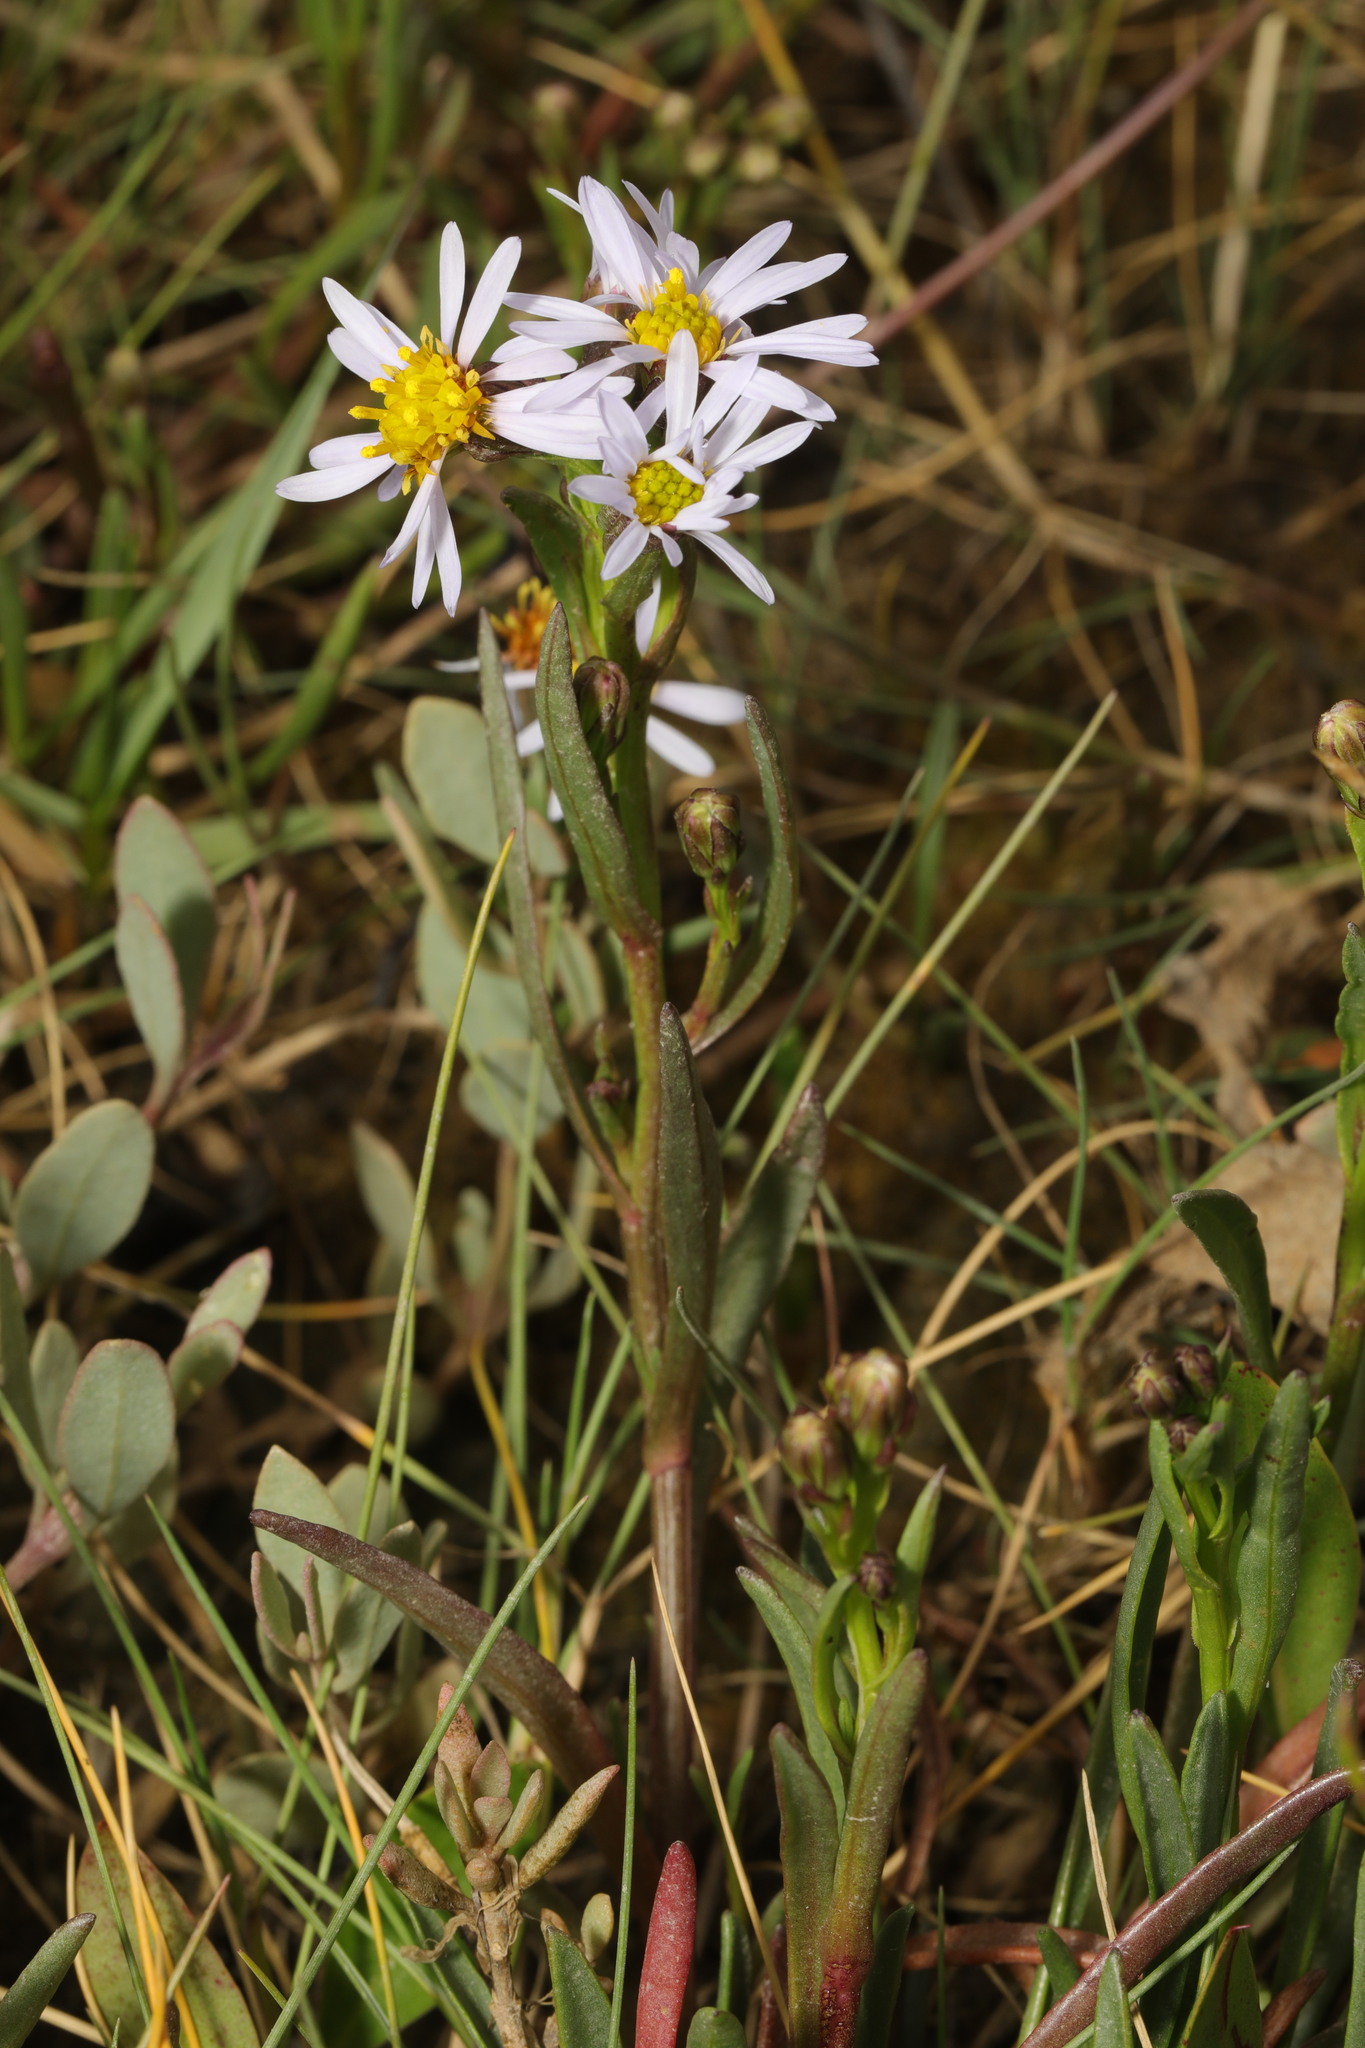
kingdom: Plantae
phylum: Tracheophyta
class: Magnoliopsida
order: Asterales
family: Asteraceae
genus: Tripolium
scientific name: Tripolium pannonicum
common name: Sea aster
